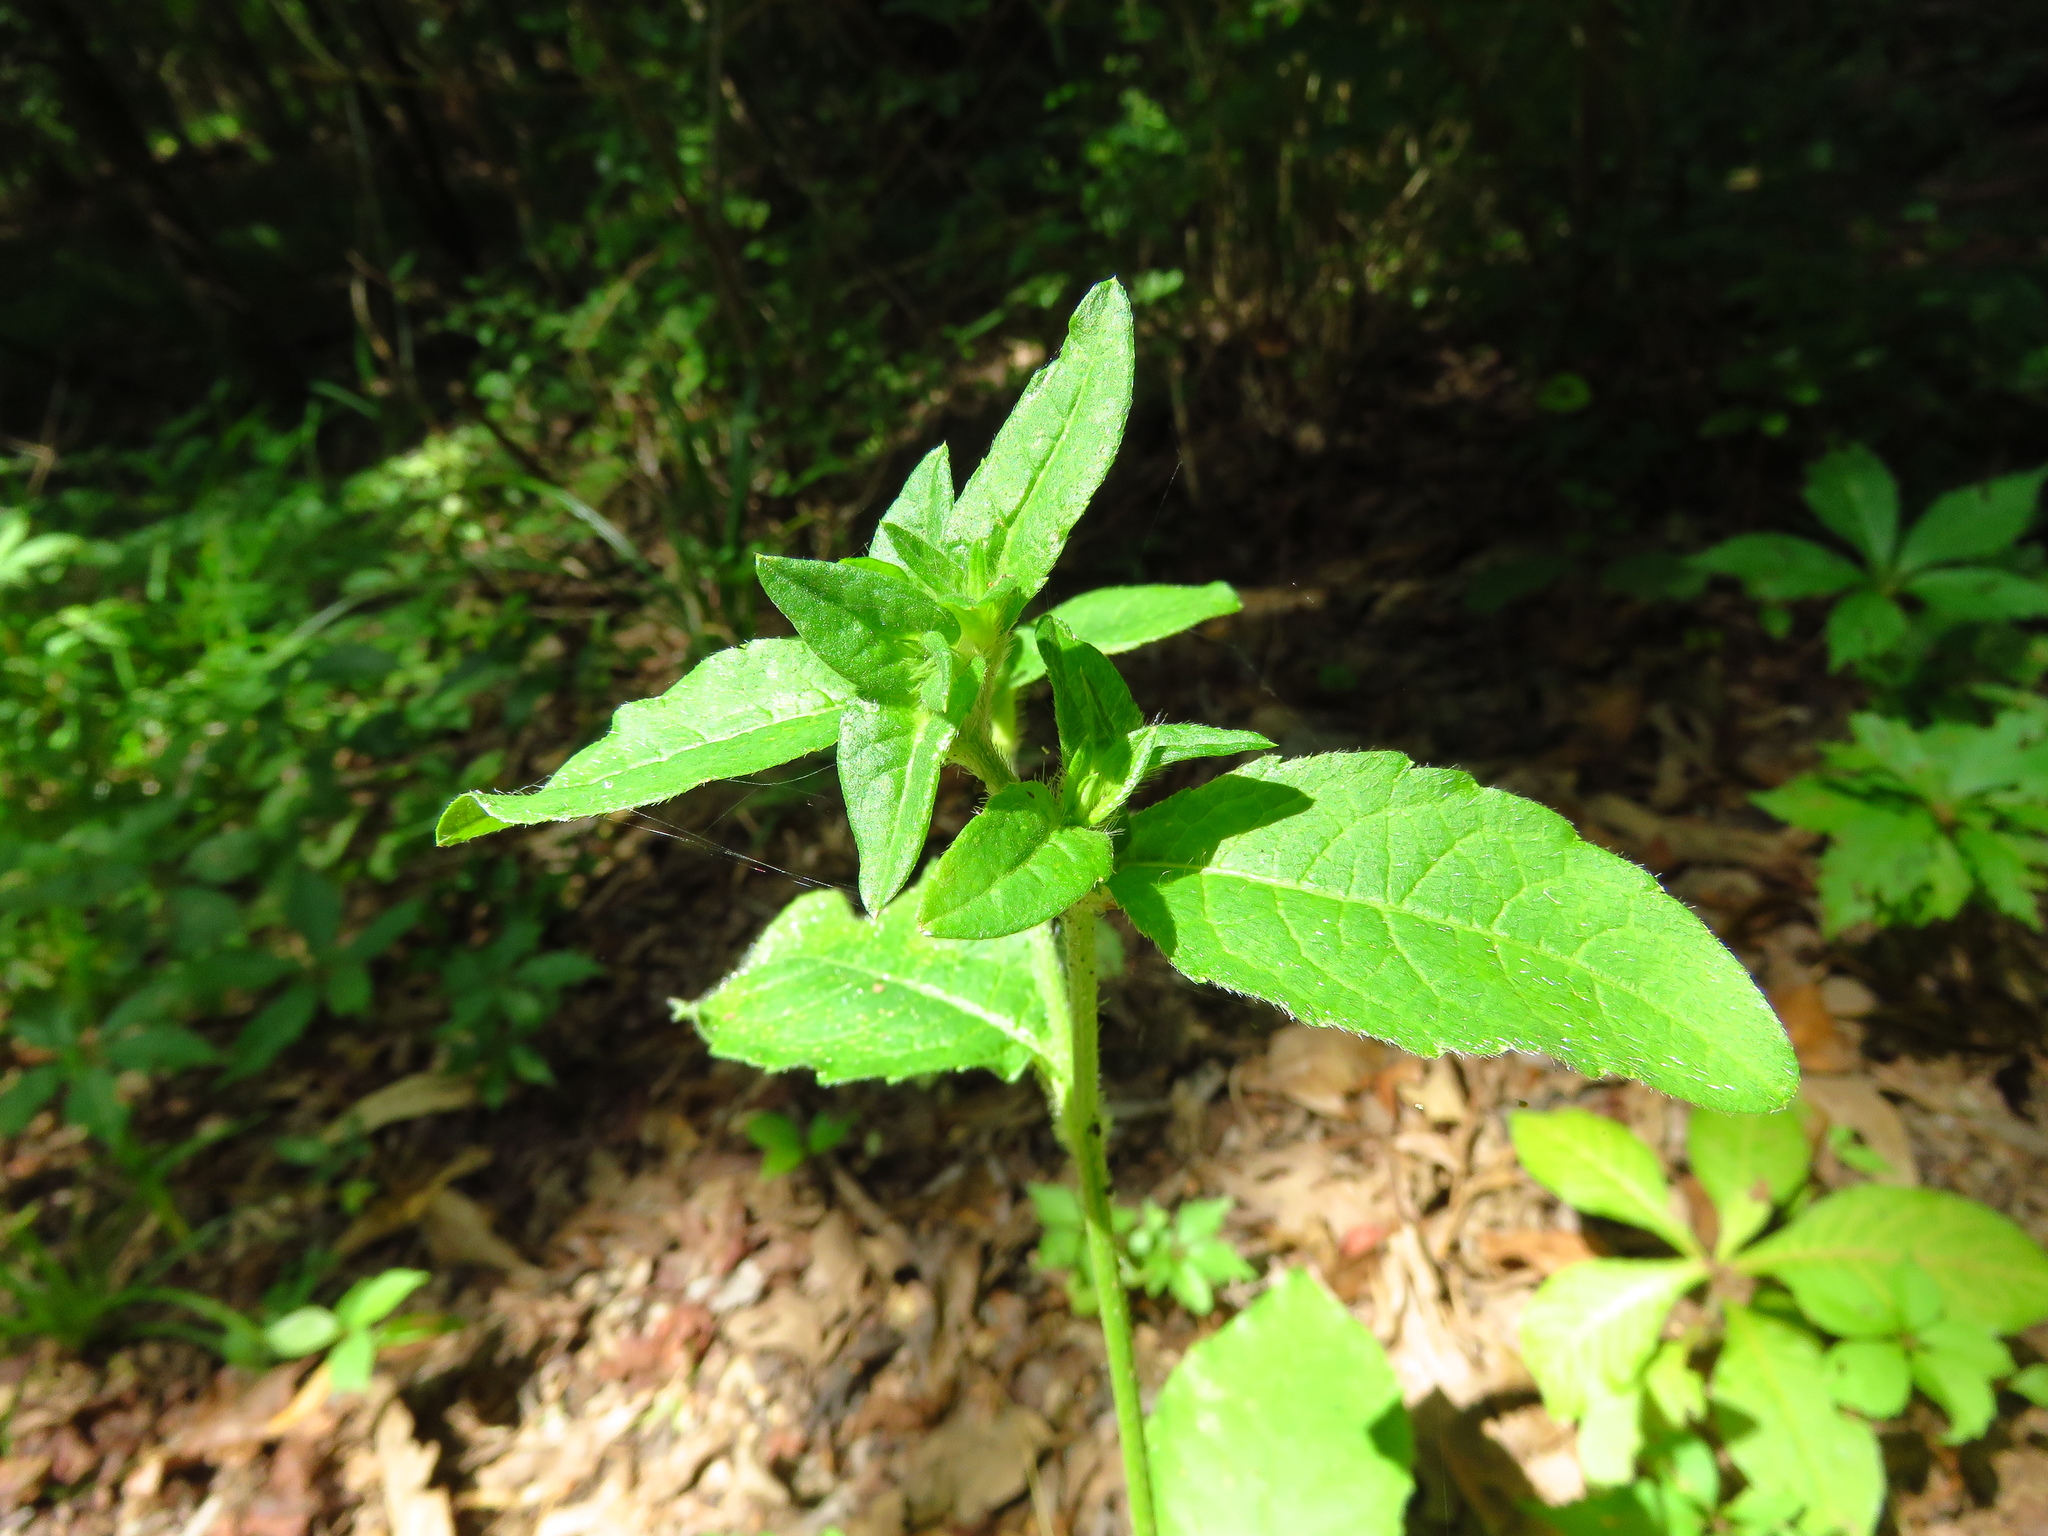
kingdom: Plantae
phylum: Tracheophyta
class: Magnoliopsida
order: Asterales
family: Asteraceae
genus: Elephantopus
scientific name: Elephantopus carolinianus
